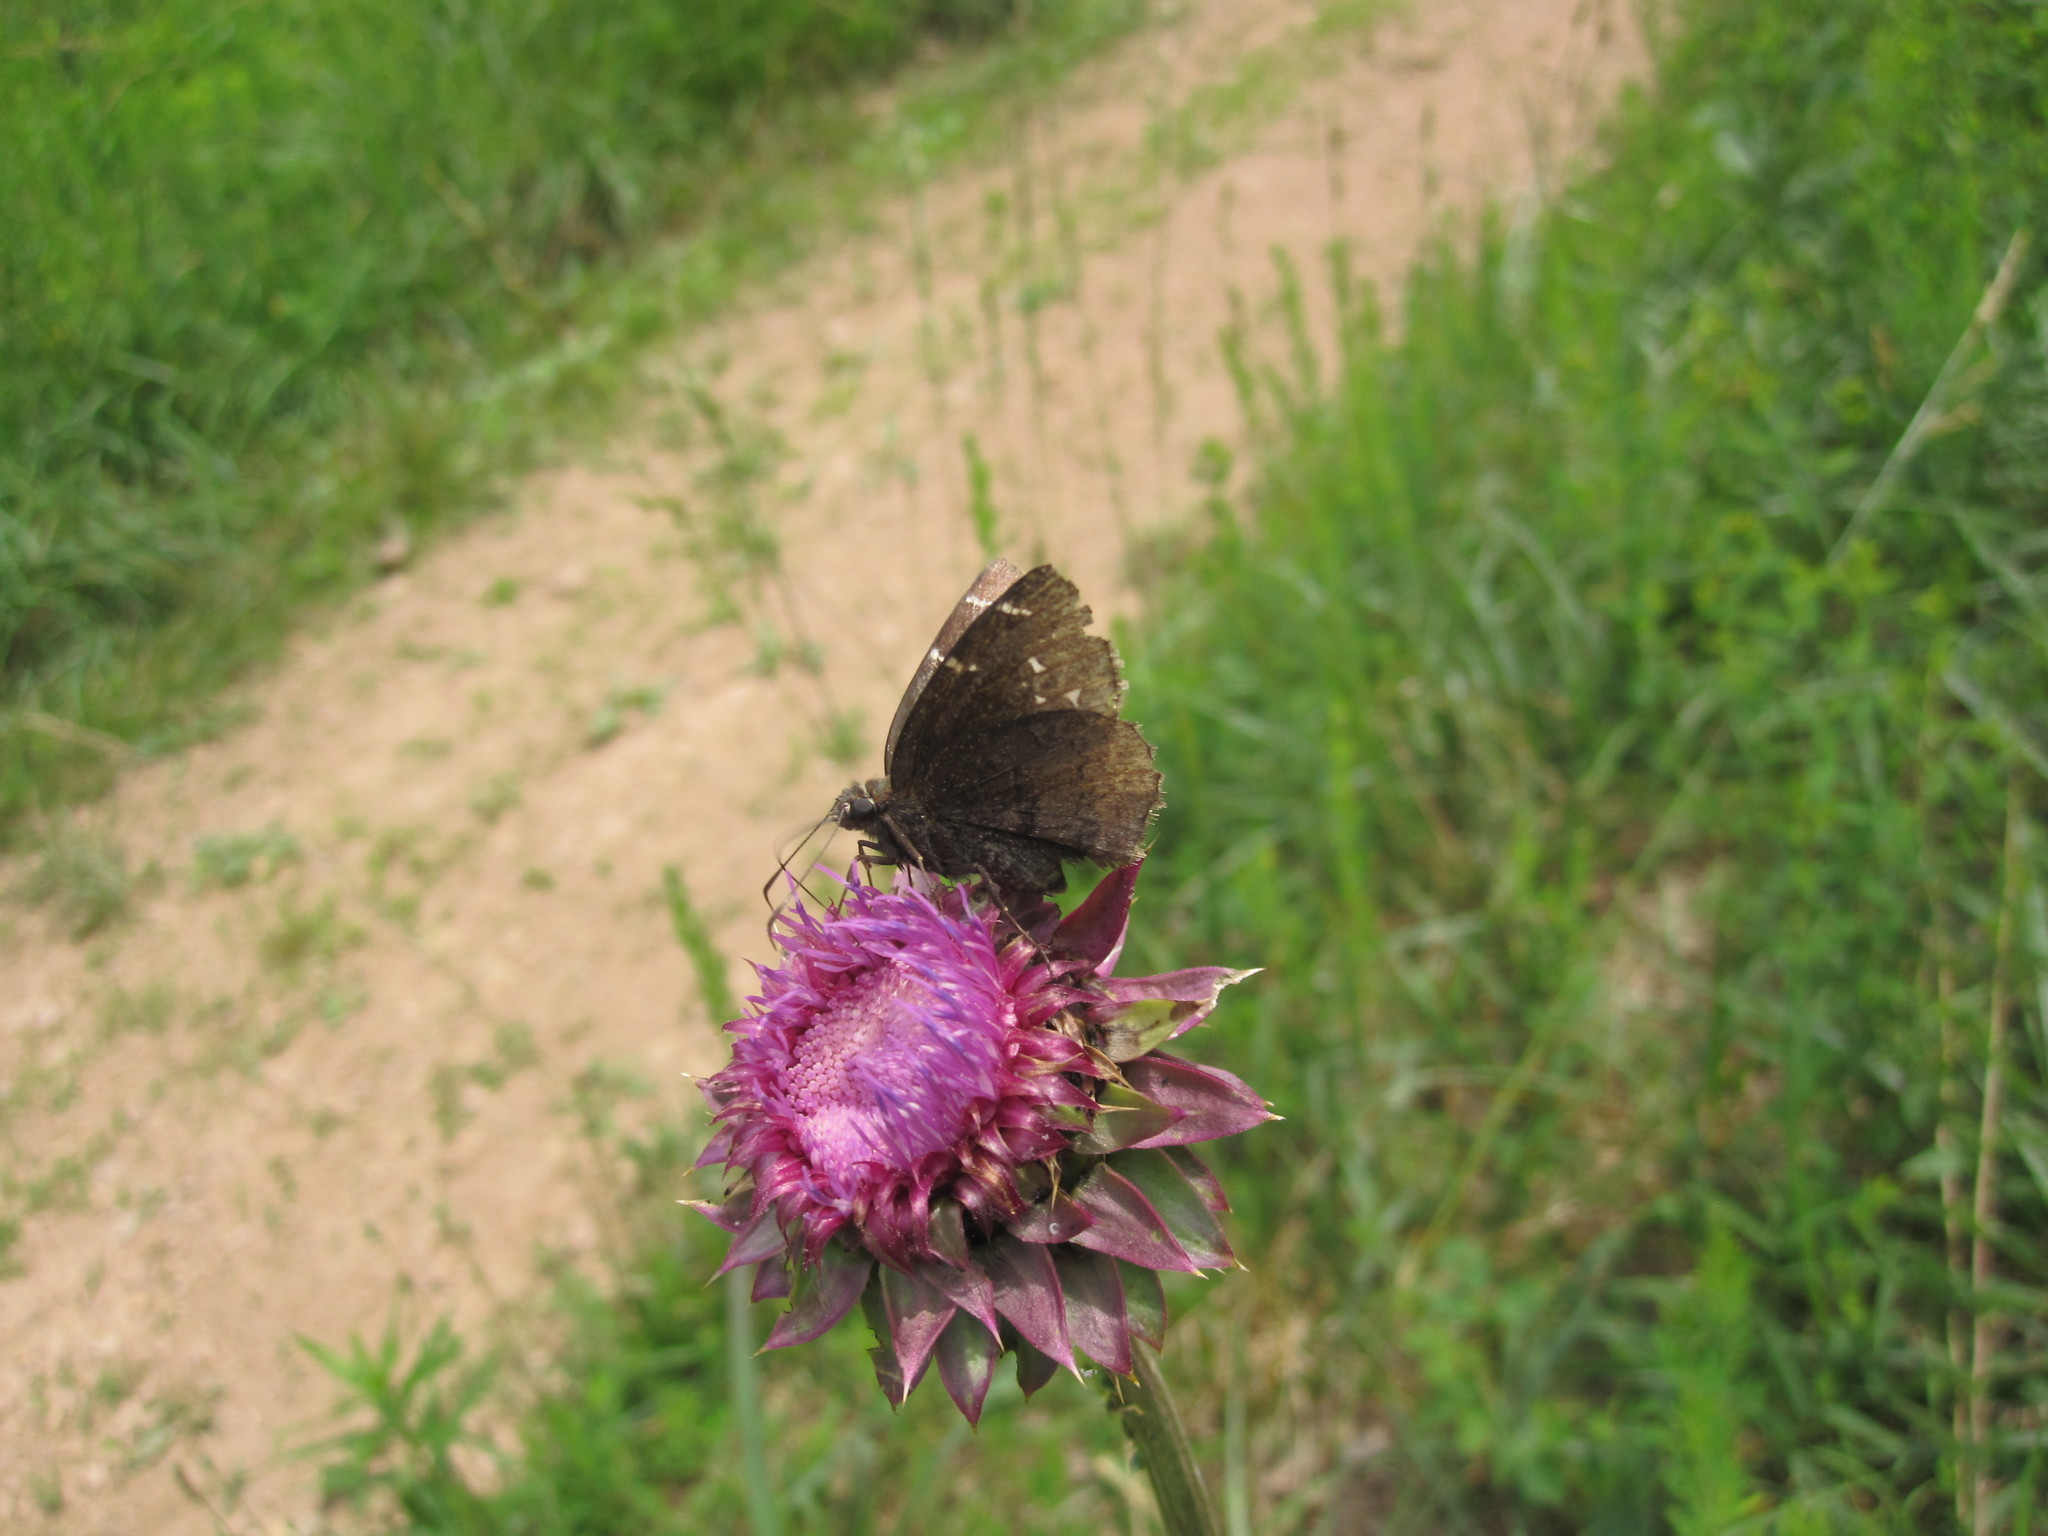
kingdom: Animalia
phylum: Arthropoda
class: Insecta
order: Lepidoptera
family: Hesperiidae
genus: Thorybes
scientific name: Thorybes pylades
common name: Northern cloudywing
